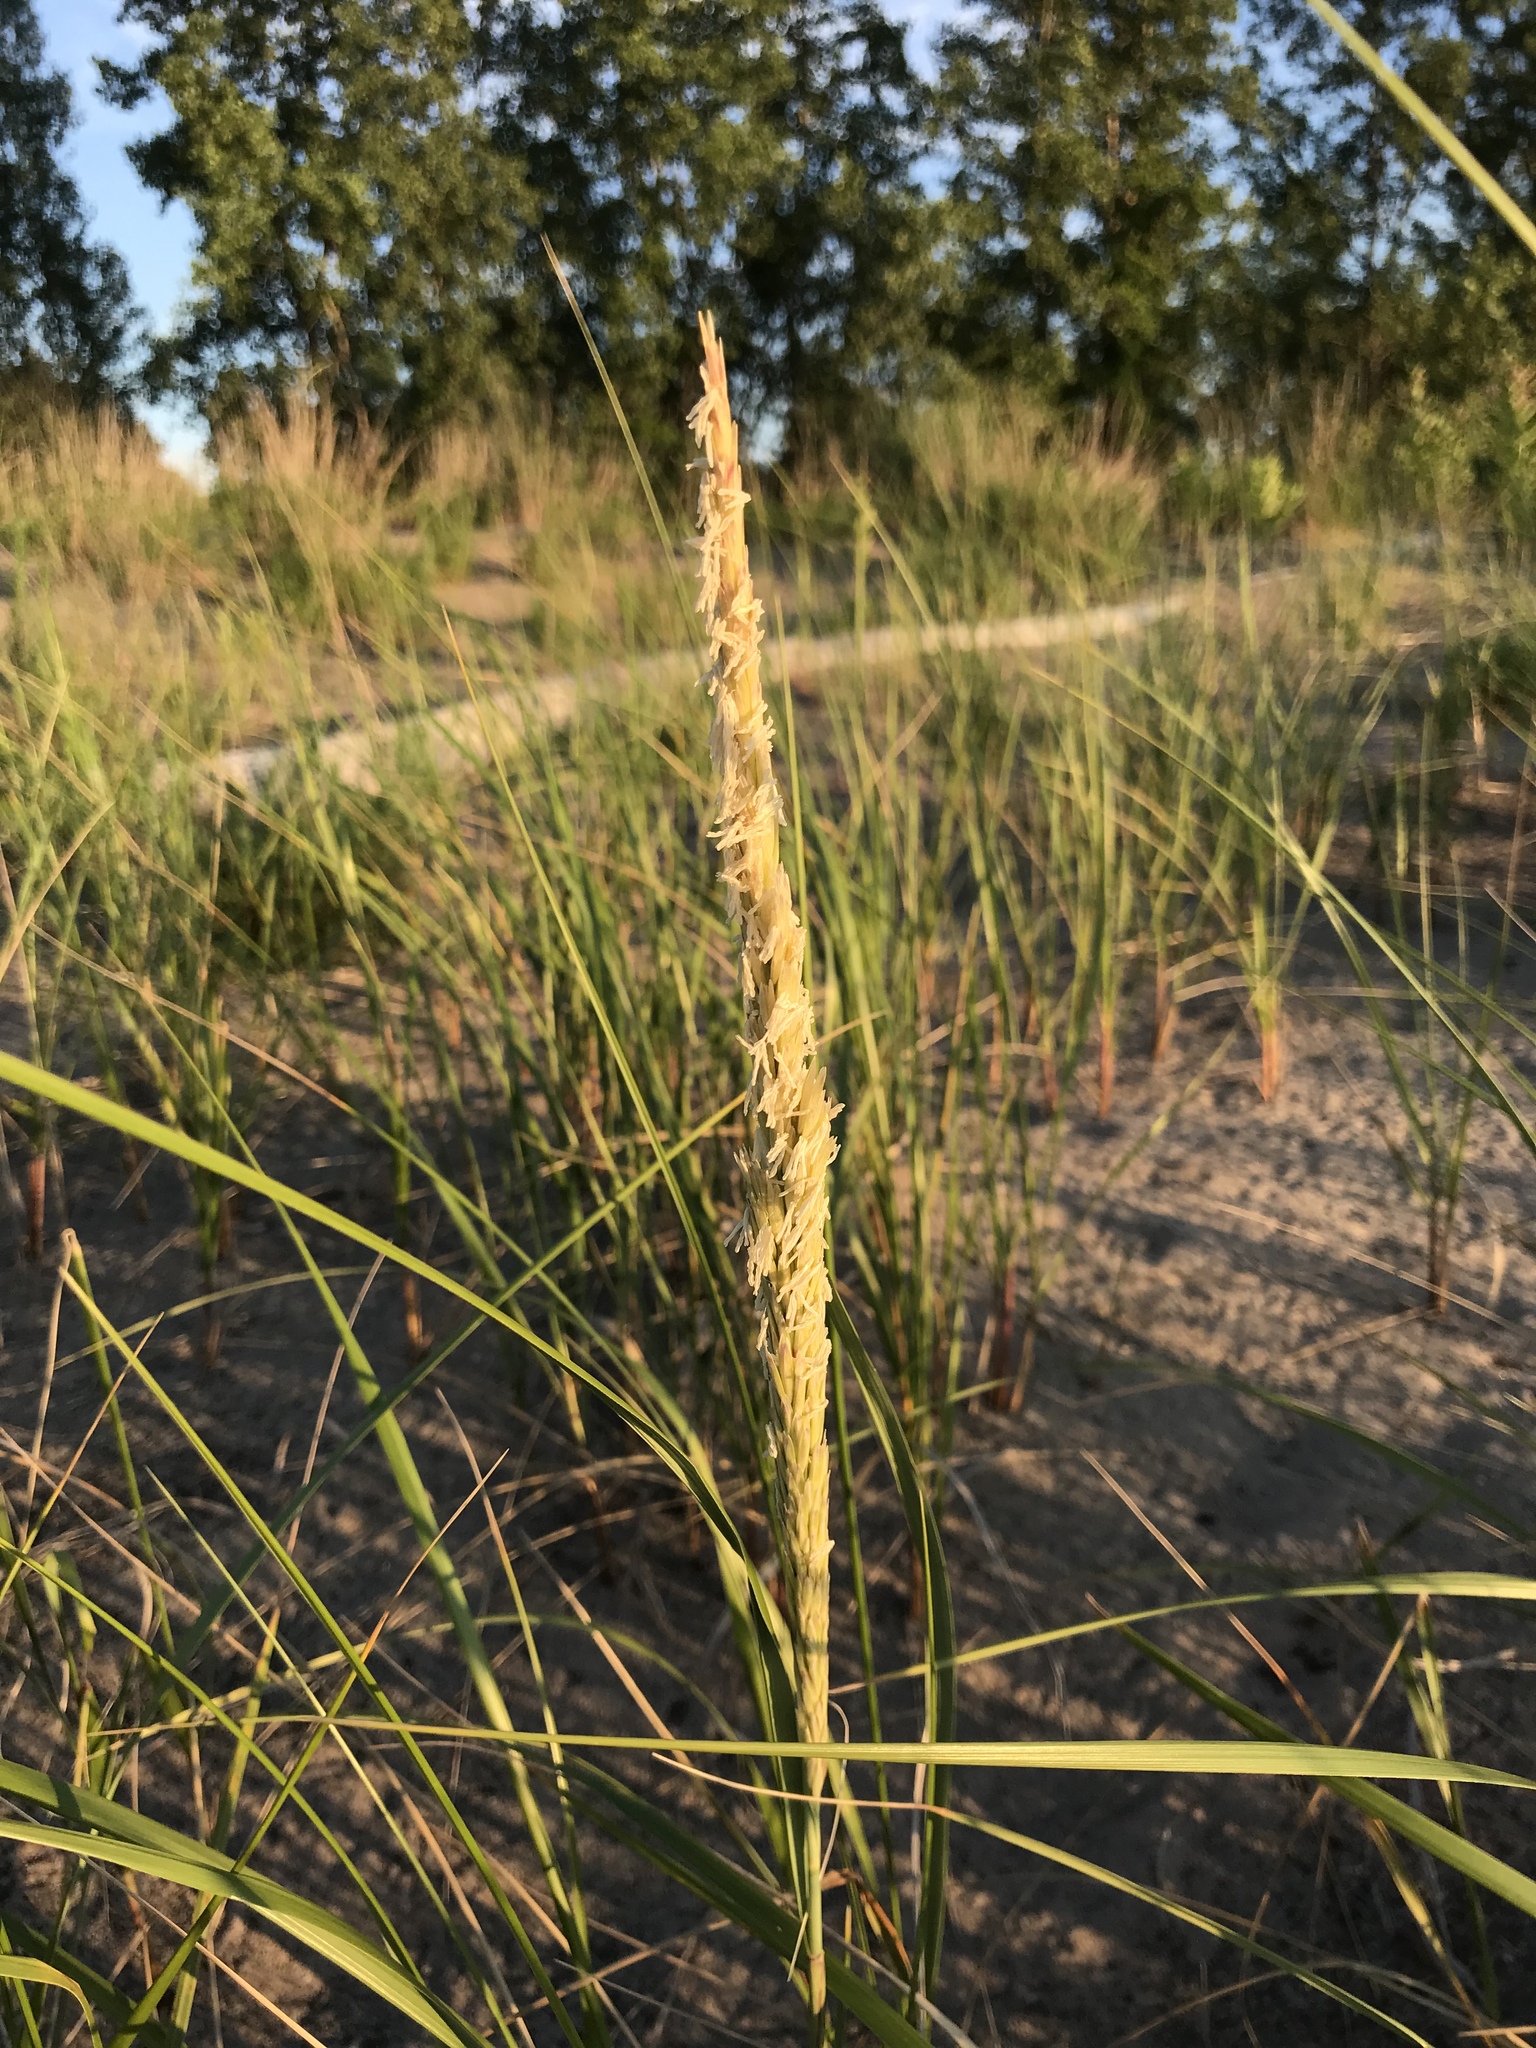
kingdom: Plantae
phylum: Tracheophyta
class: Liliopsida
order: Poales
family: Poaceae
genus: Calamagrostis
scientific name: Calamagrostis breviligulata
